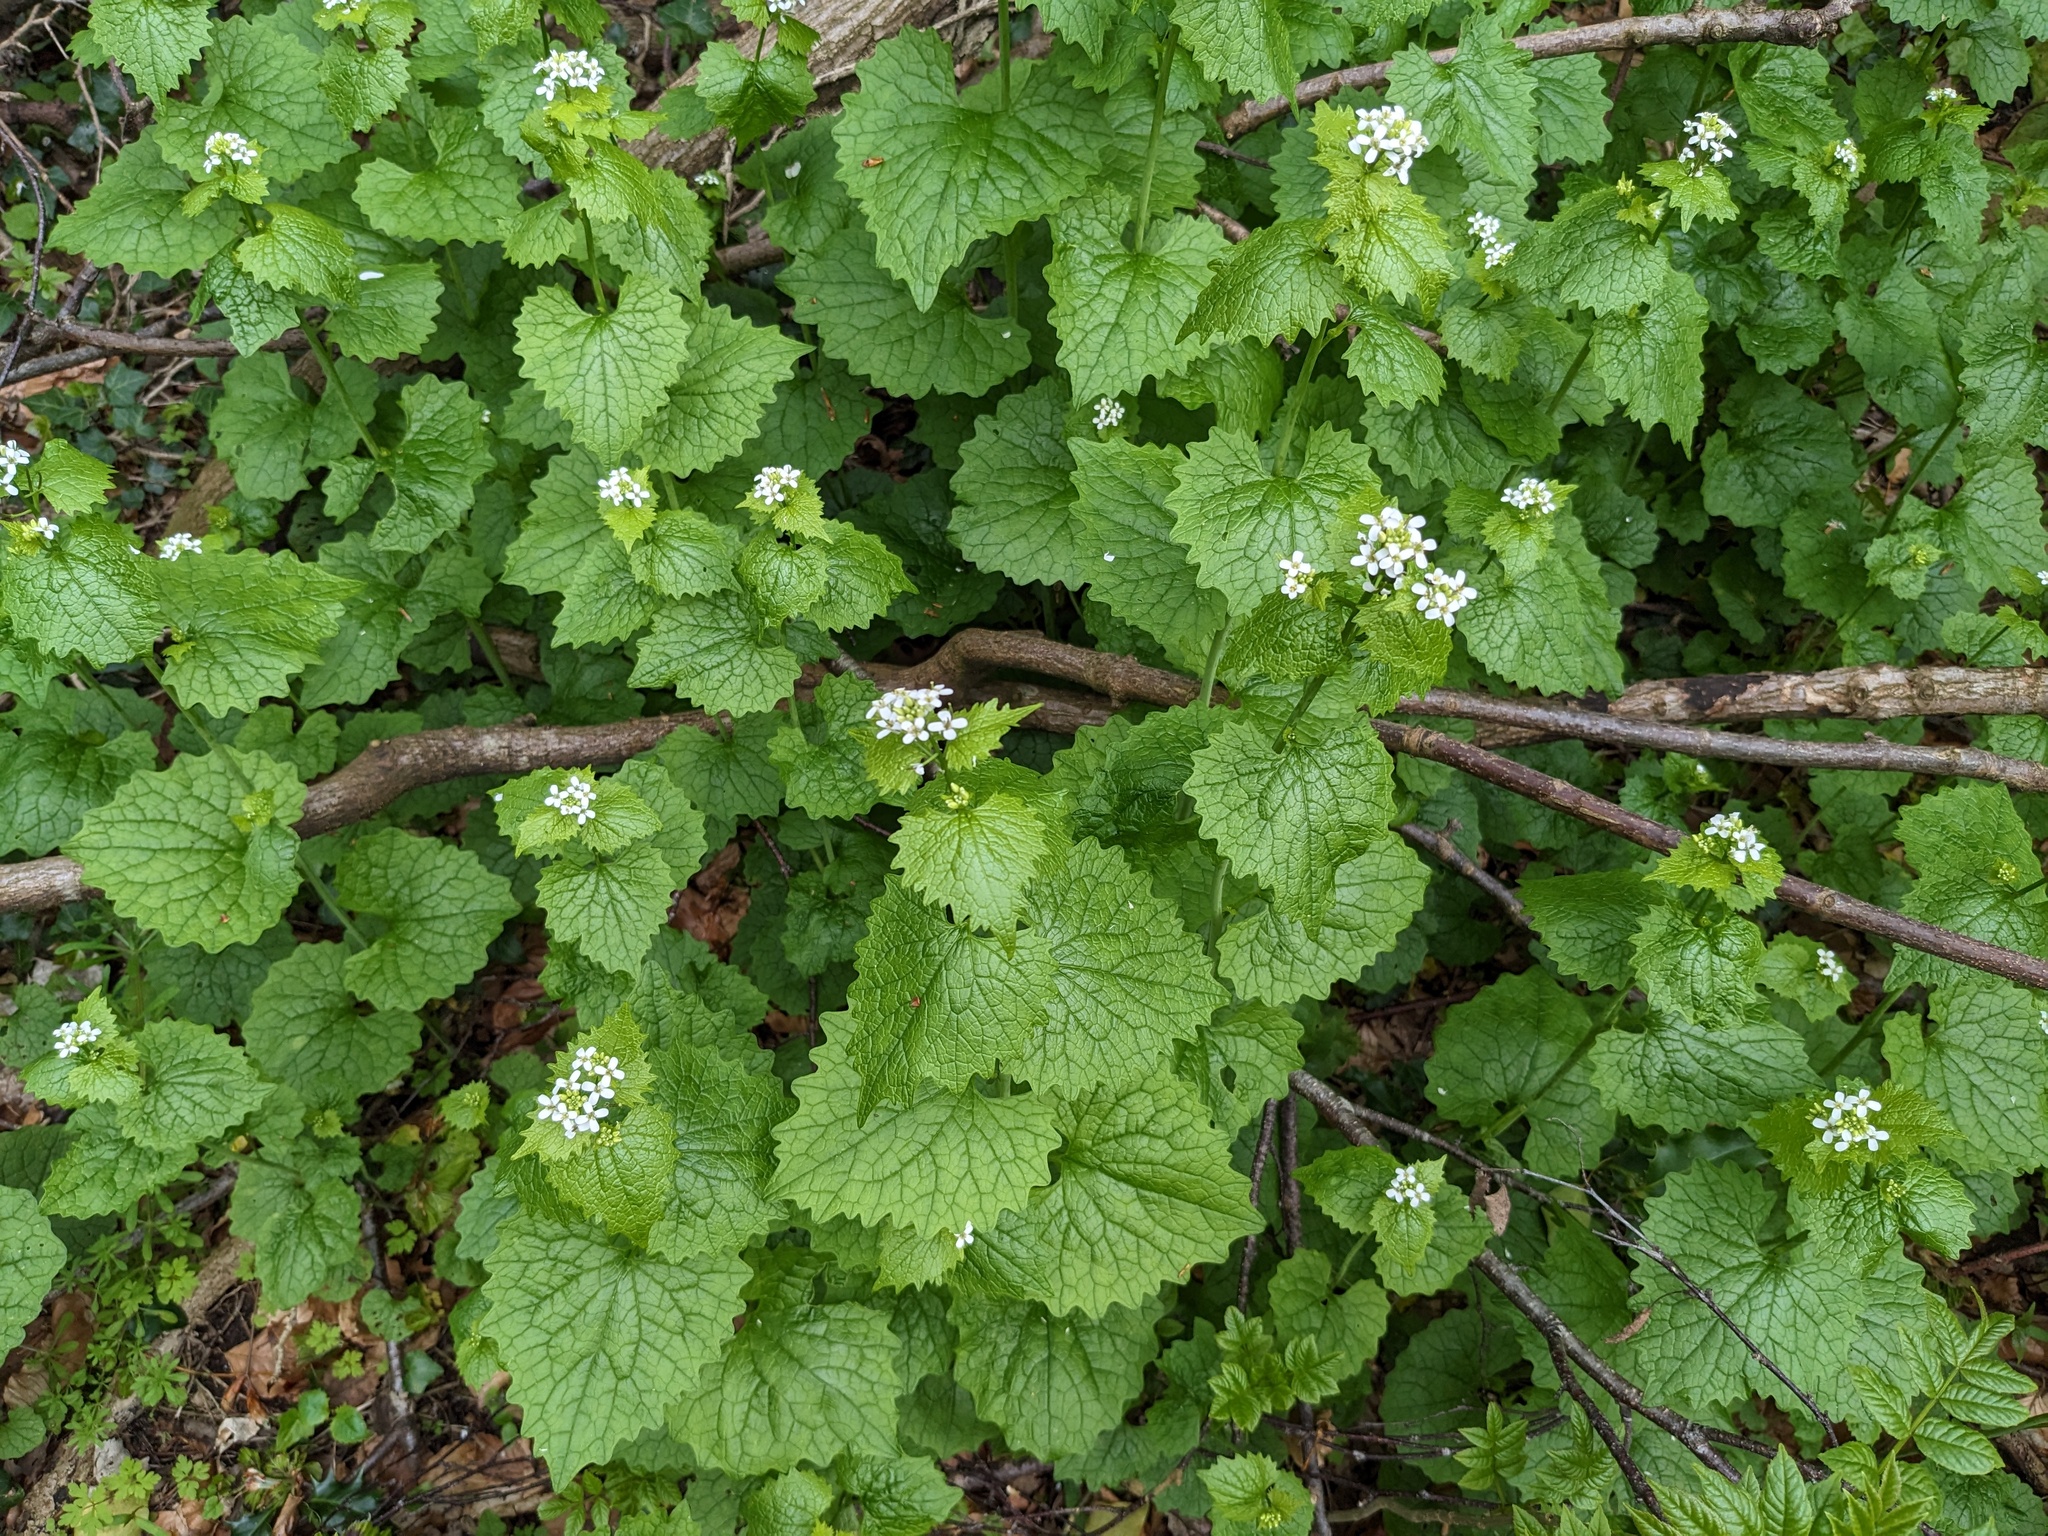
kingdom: Plantae
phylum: Tracheophyta
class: Magnoliopsida
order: Brassicales
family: Brassicaceae
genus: Alliaria
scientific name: Alliaria petiolata
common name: Garlic mustard
